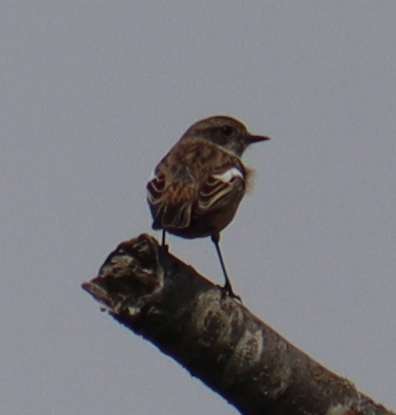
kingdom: Animalia
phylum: Chordata
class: Aves
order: Passeriformes
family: Muscicapidae
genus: Saxicola
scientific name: Saxicola rubicola
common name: European stonechat
